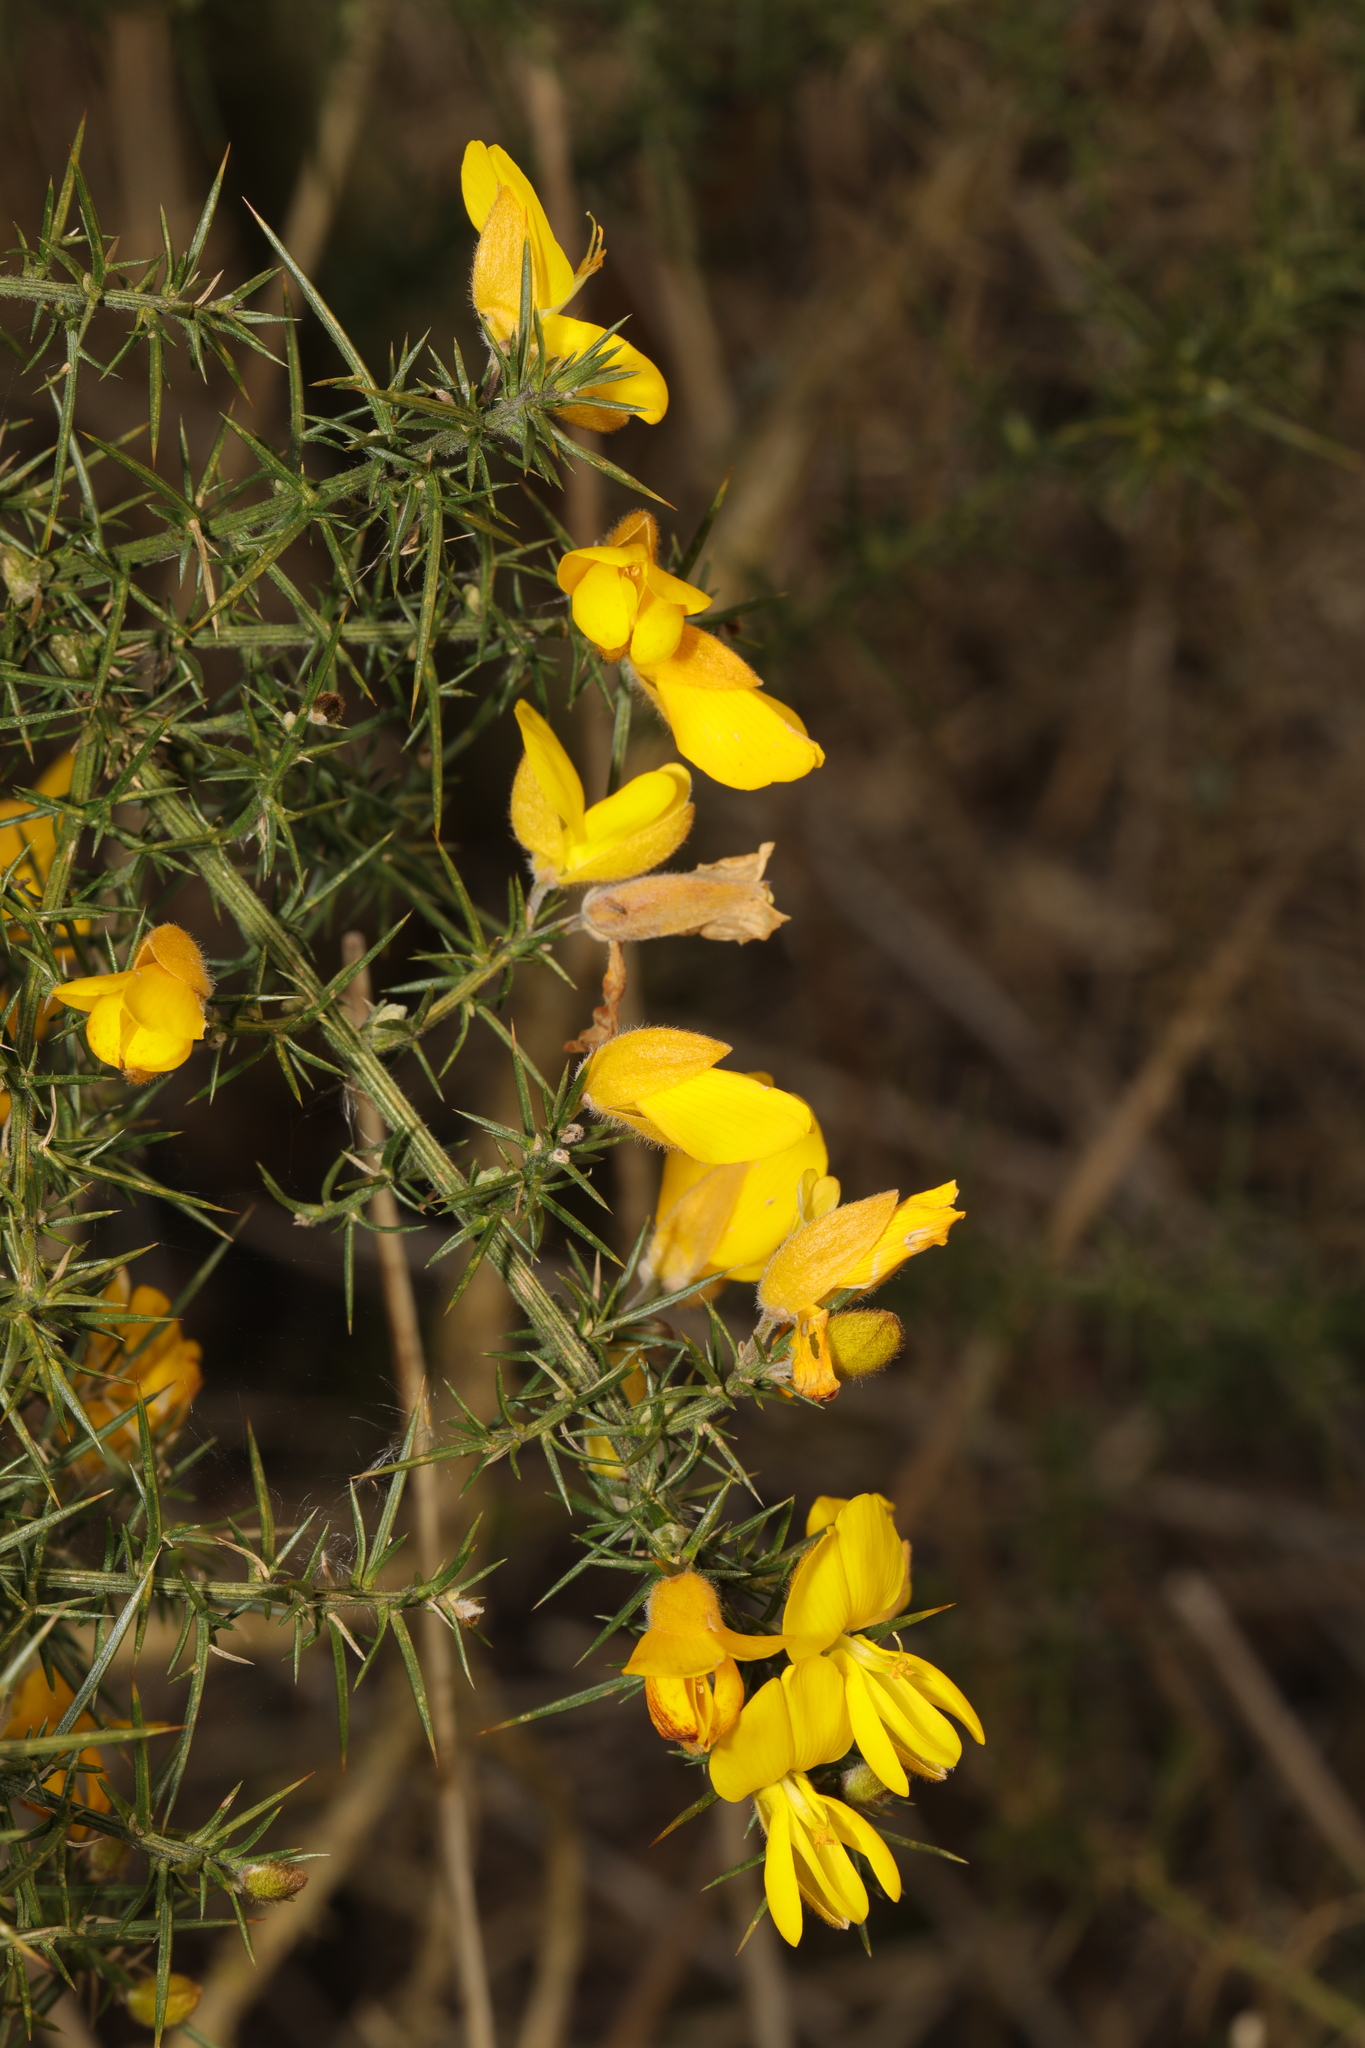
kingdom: Plantae
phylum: Tracheophyta
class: Magnoliopsida
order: Fabales
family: Fabaceae
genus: Ulex
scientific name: Ulex europaeus
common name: Common gorse
